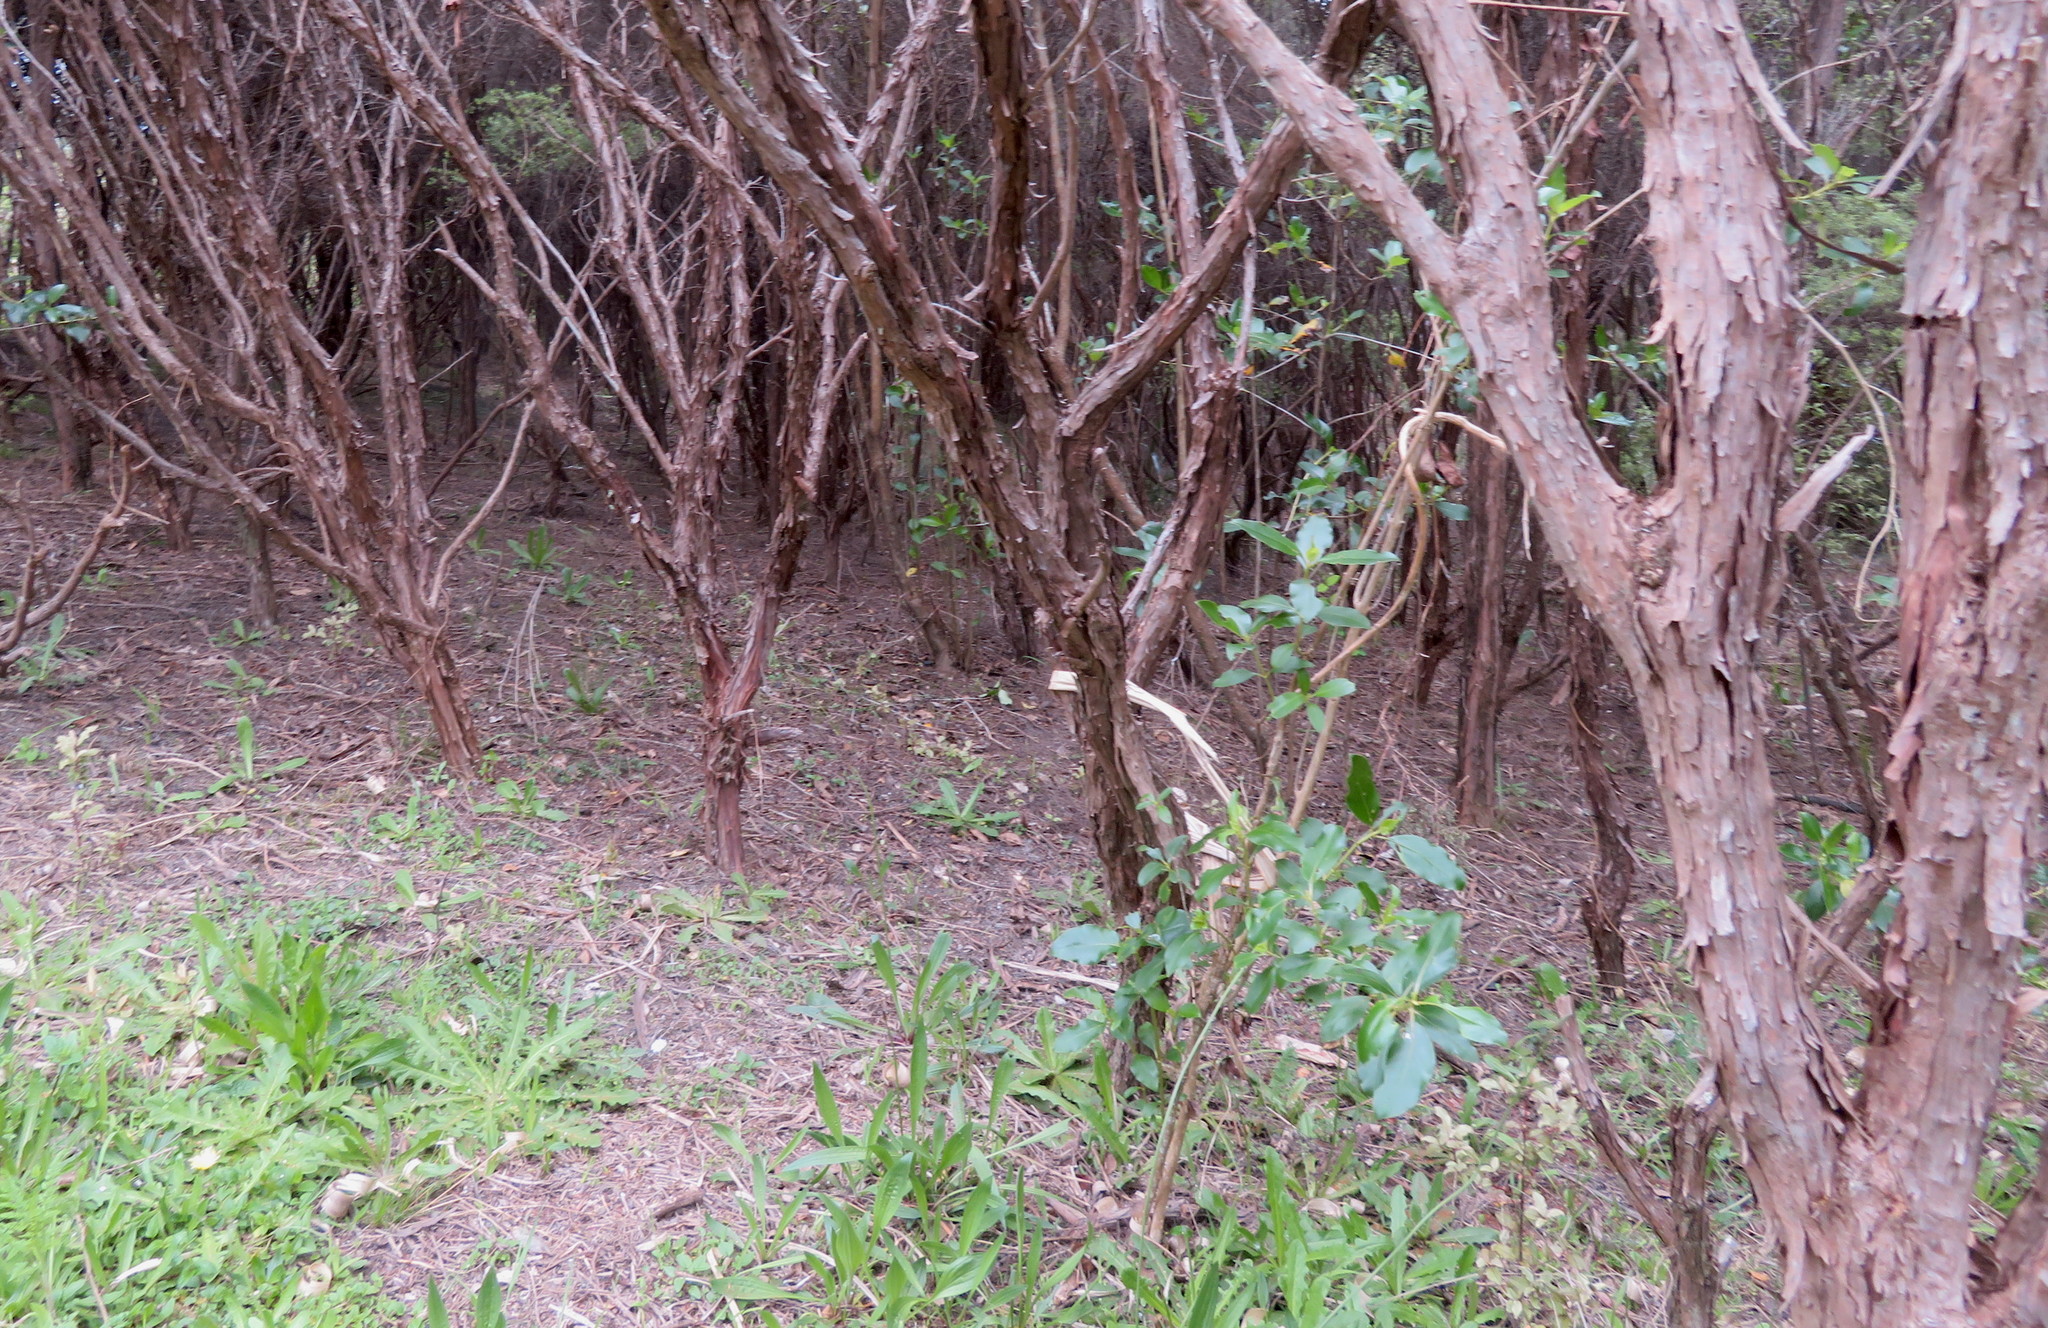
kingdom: Plantae
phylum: Tracheophyta
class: Magnoliopsida
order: Asterales
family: Asteraceae
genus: Hypochaeris
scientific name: Hypochaeris radicata
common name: Flatweed
